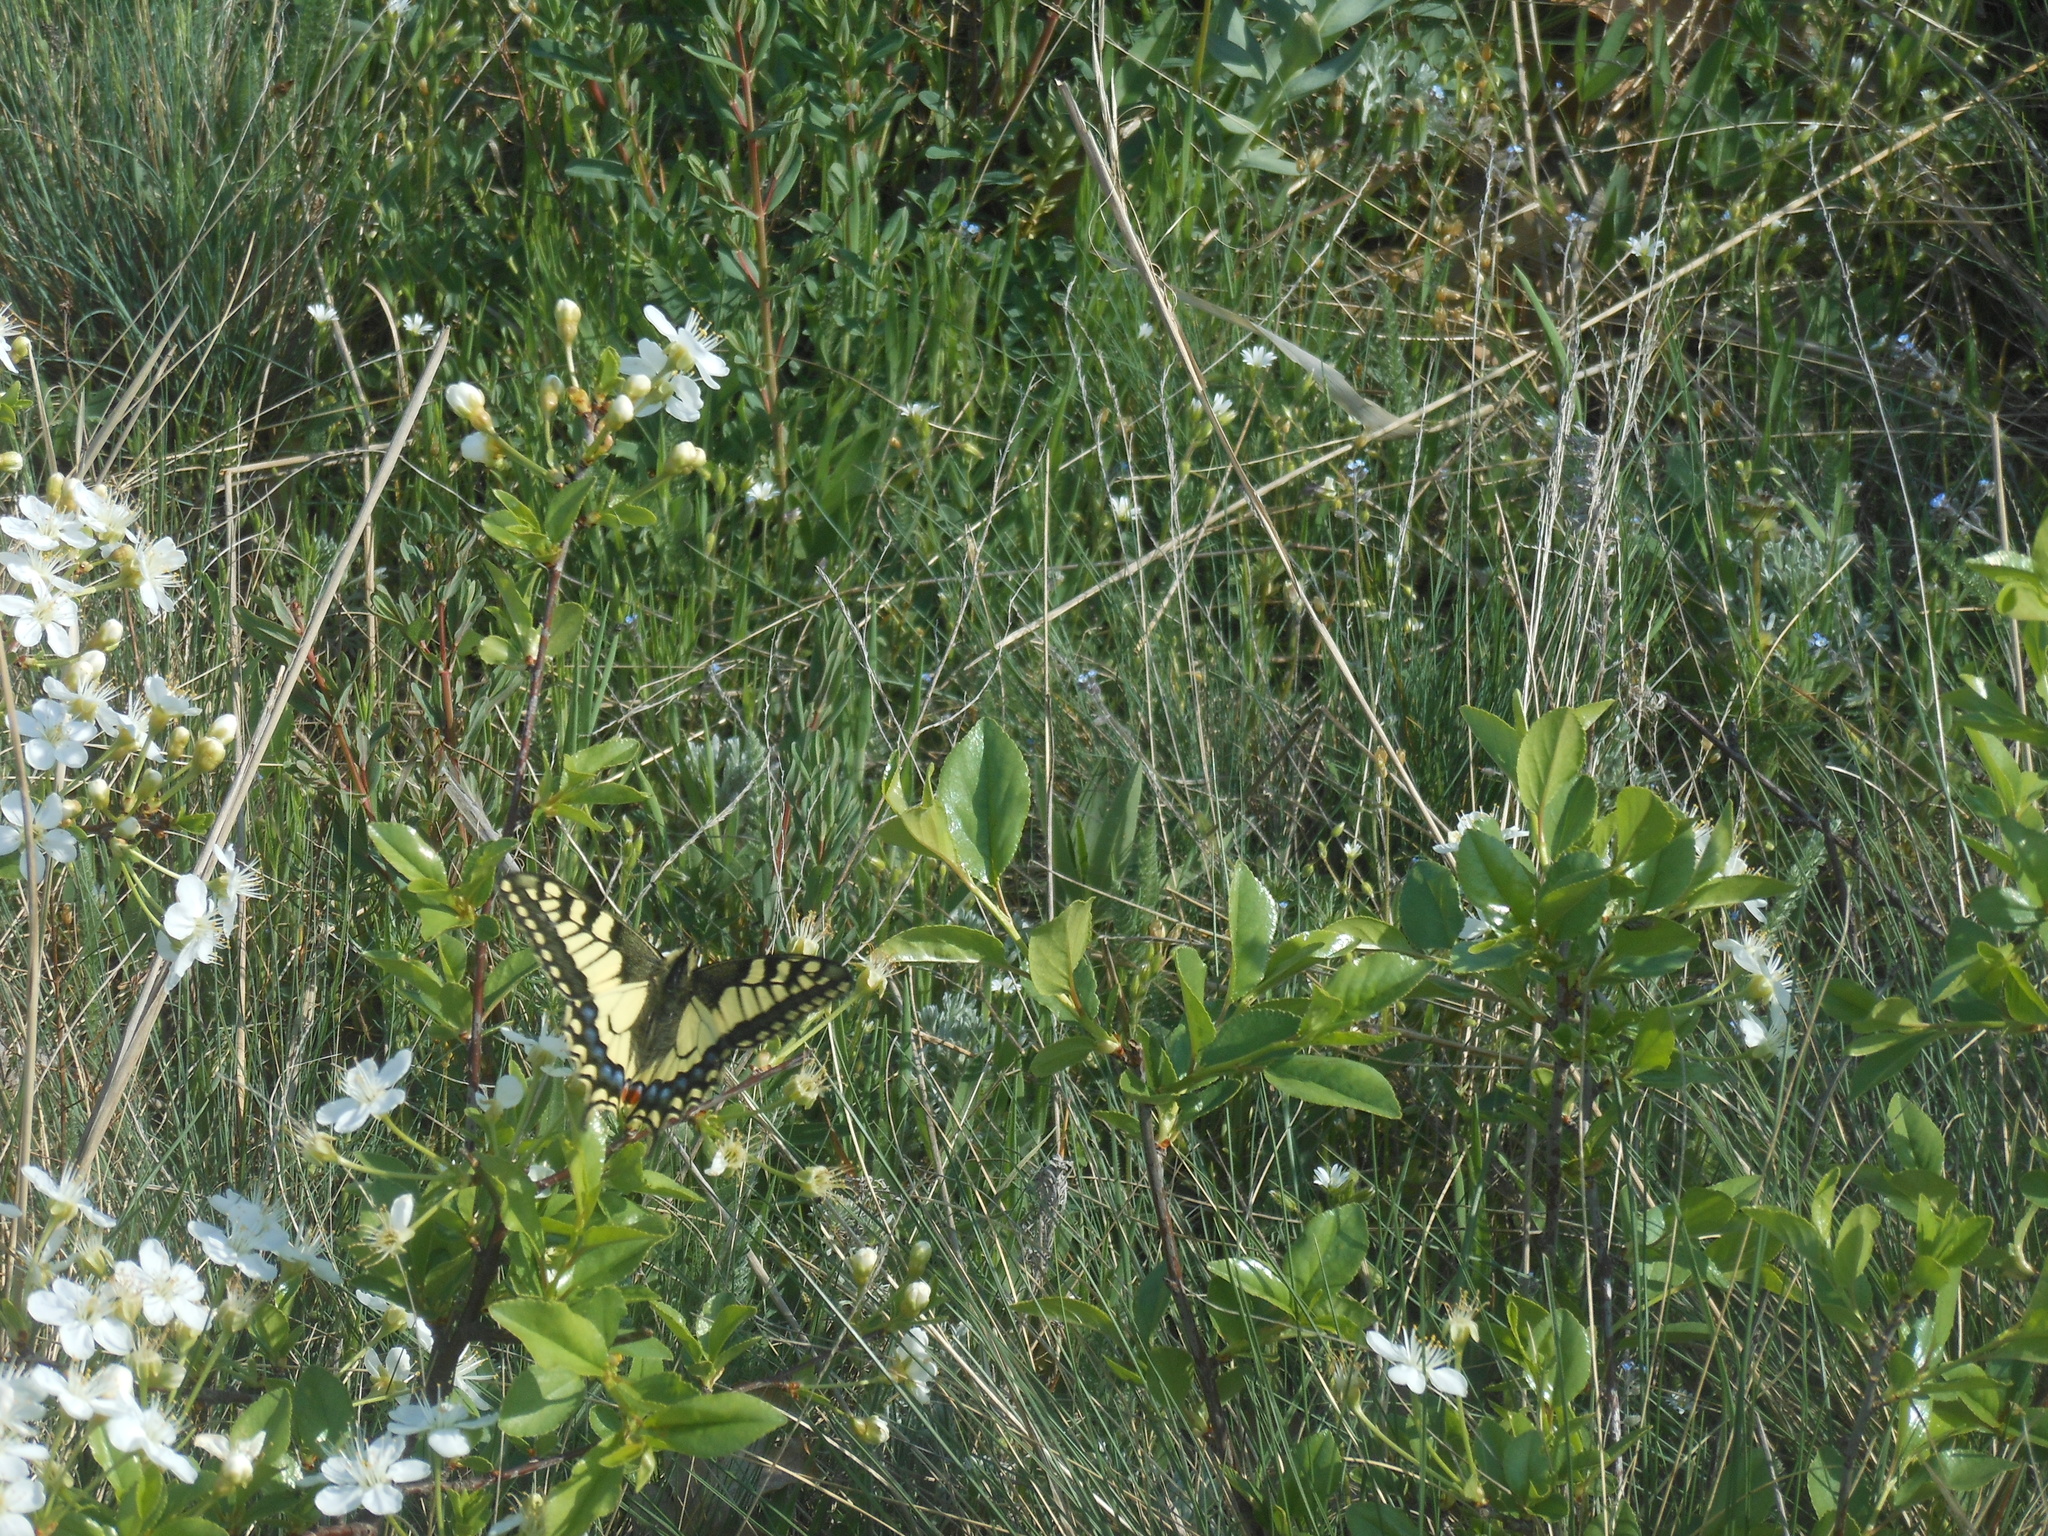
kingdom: Animalia
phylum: Arthropoda
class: Insecta
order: Lepidoptera
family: Papilionidae
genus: Papilio
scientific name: Papilio machaon
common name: Swallowtail
